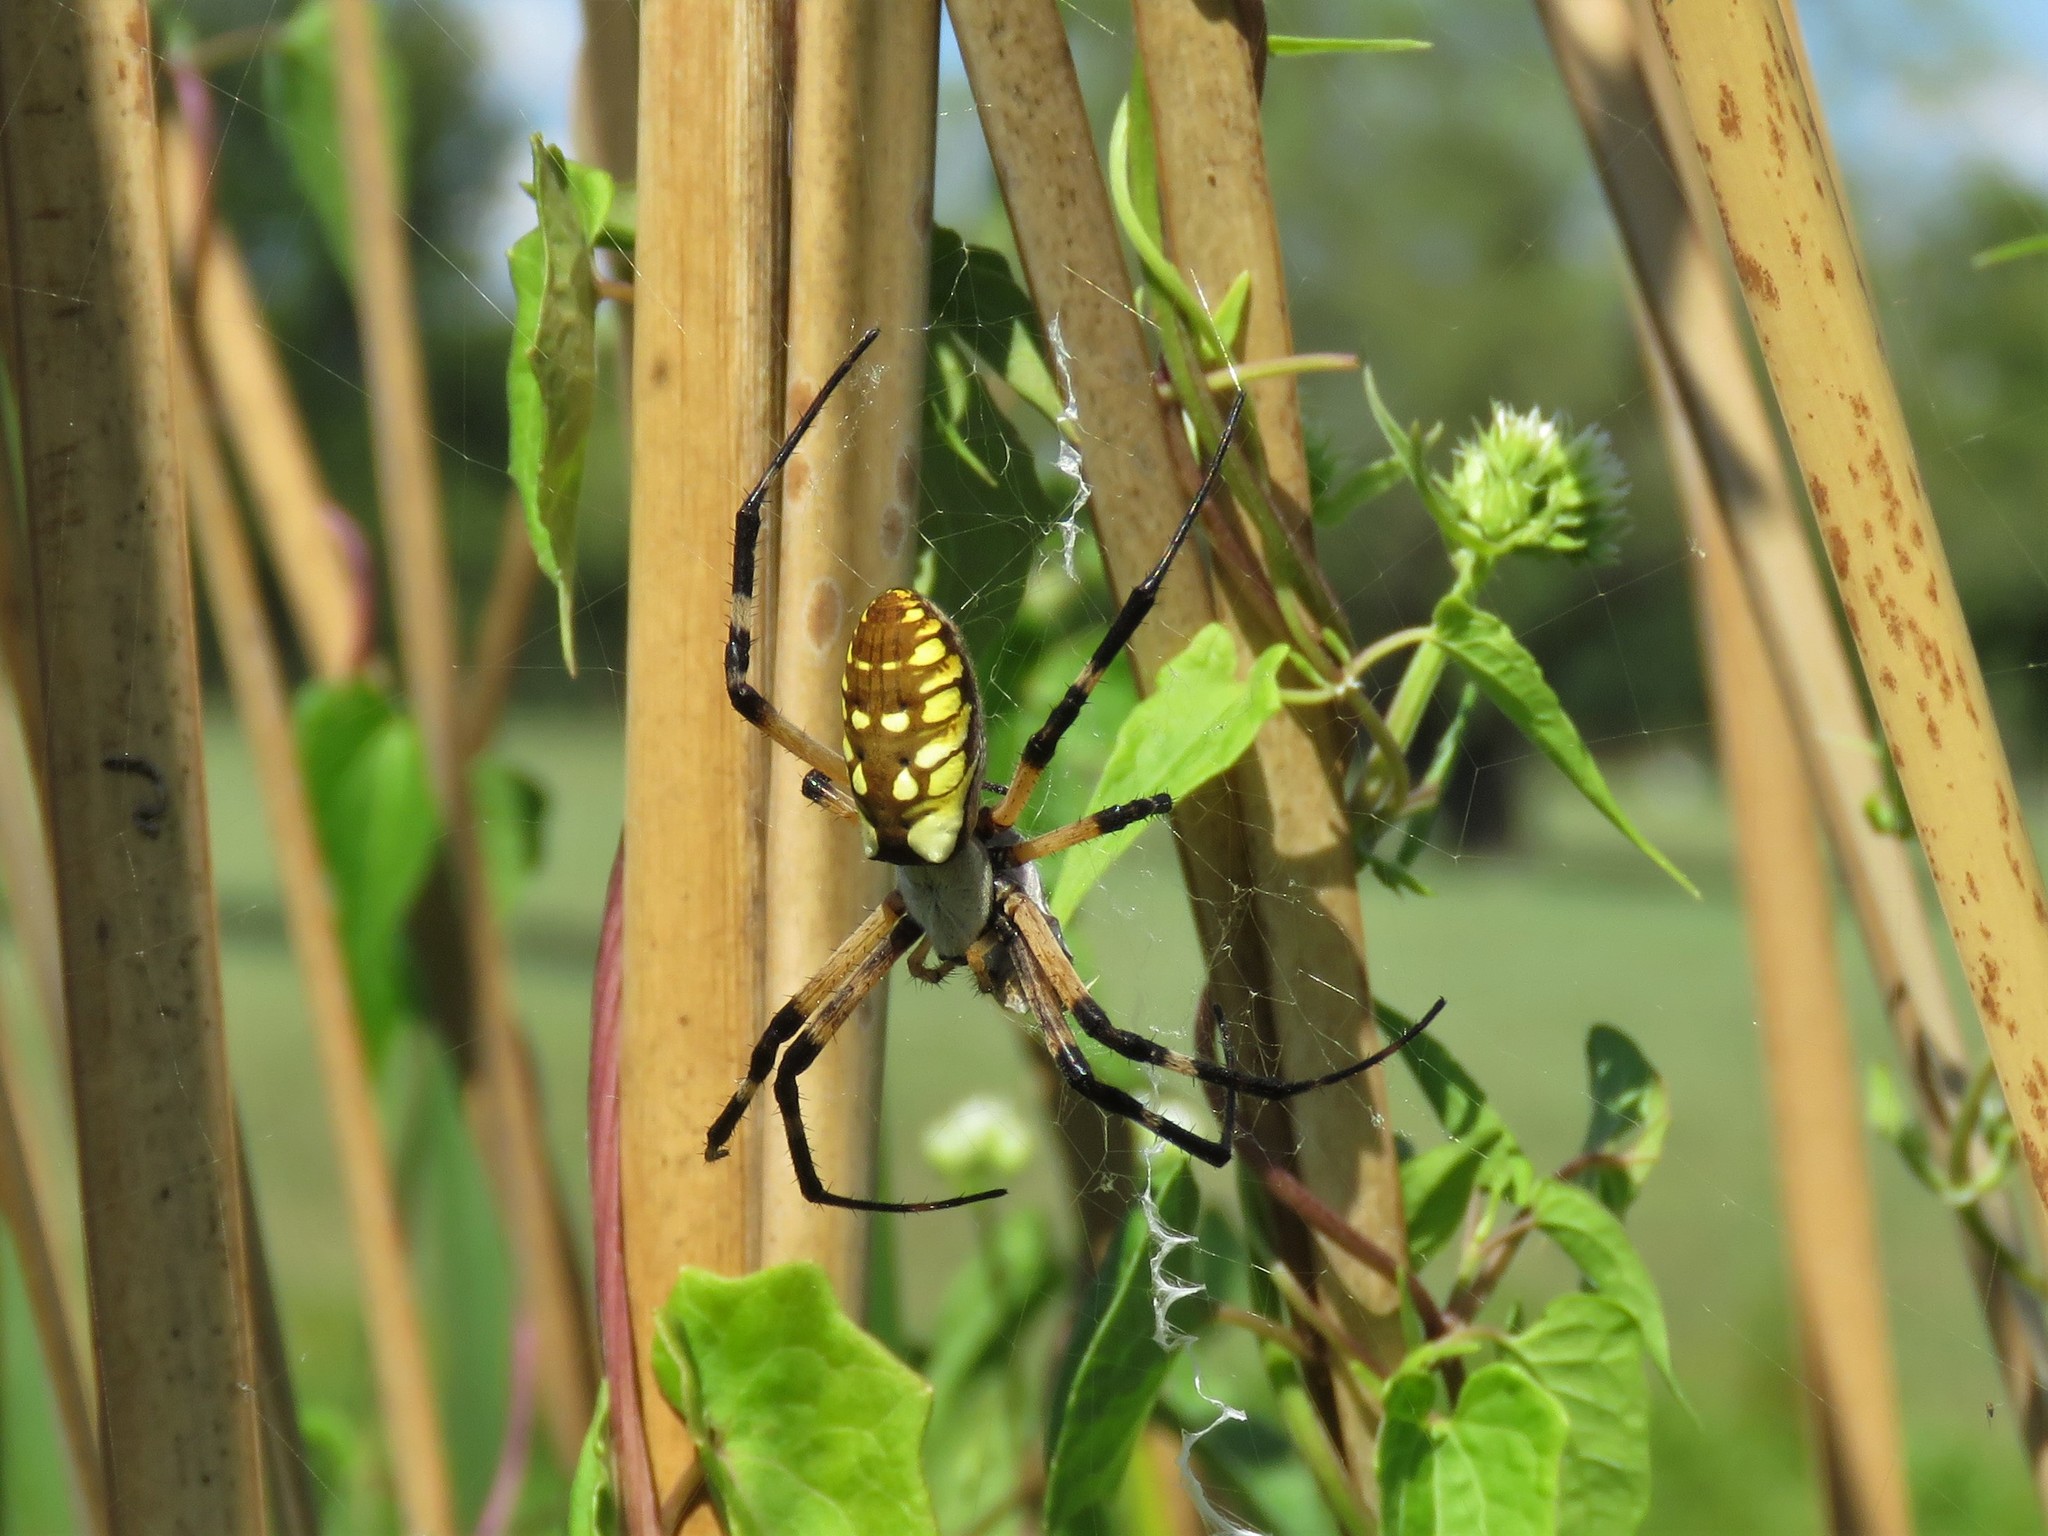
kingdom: Animalia
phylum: Arthropoda
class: Arachnida
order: Araneae
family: Araneidae
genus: Argiope
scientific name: Argiope aurantia
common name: Orb weavers
